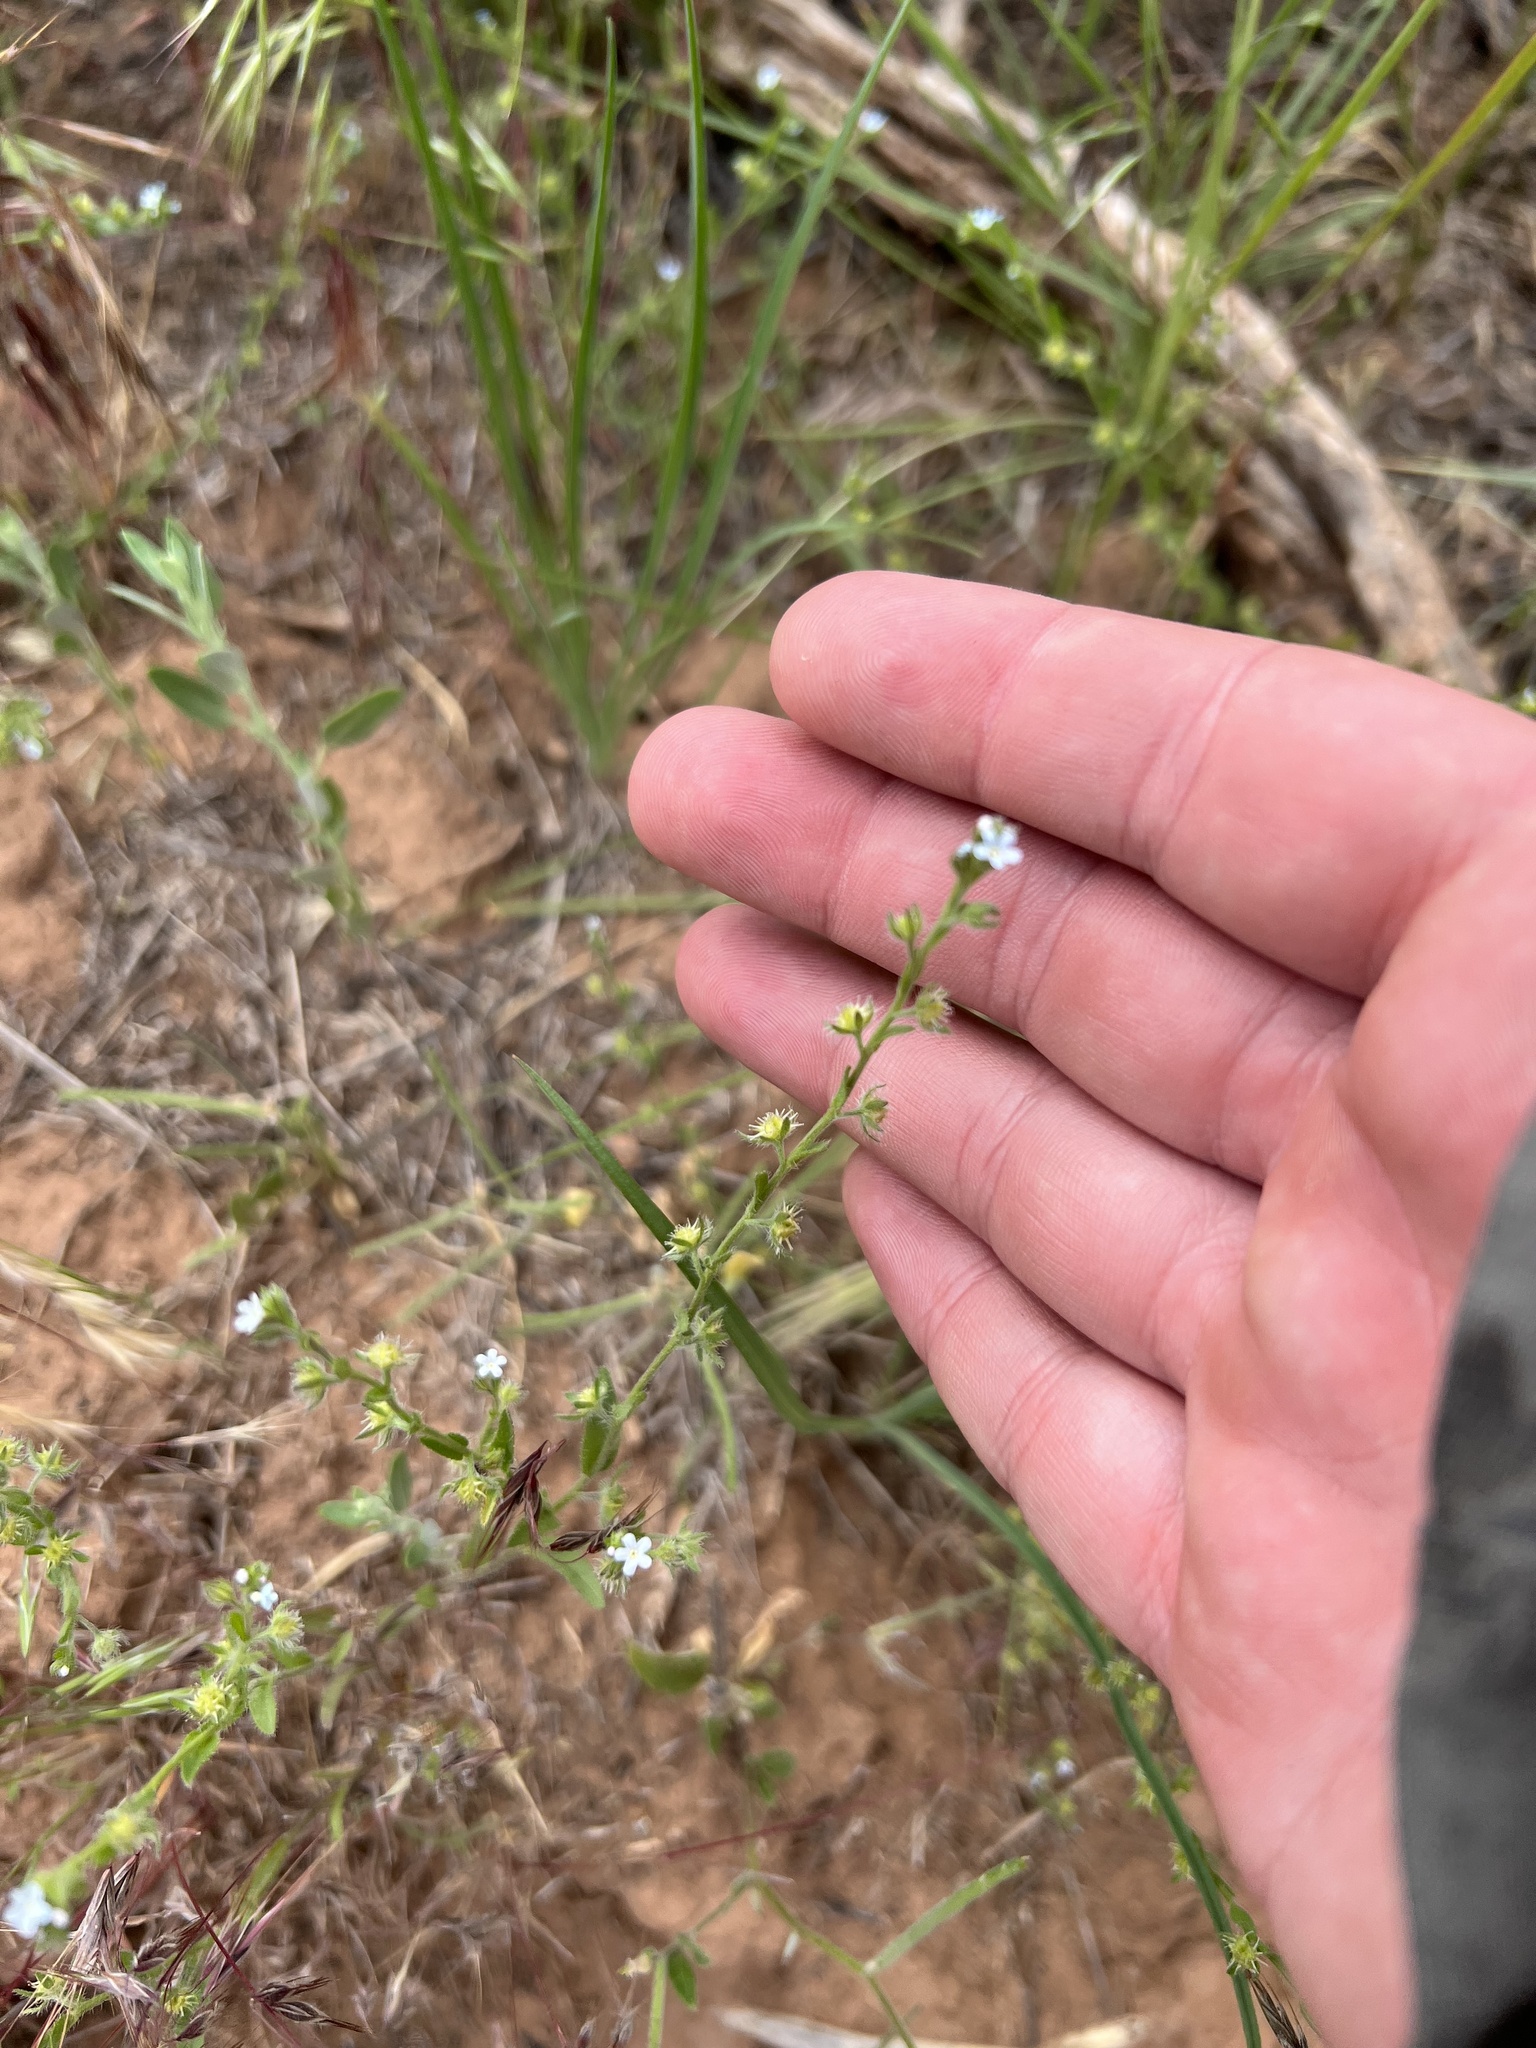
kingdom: Plantae
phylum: Tracheophyta
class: Magnoliopsida
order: Boraginales
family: Boraginaceae
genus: Lappula
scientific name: Lappula occidentalis
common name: Western stickseed
